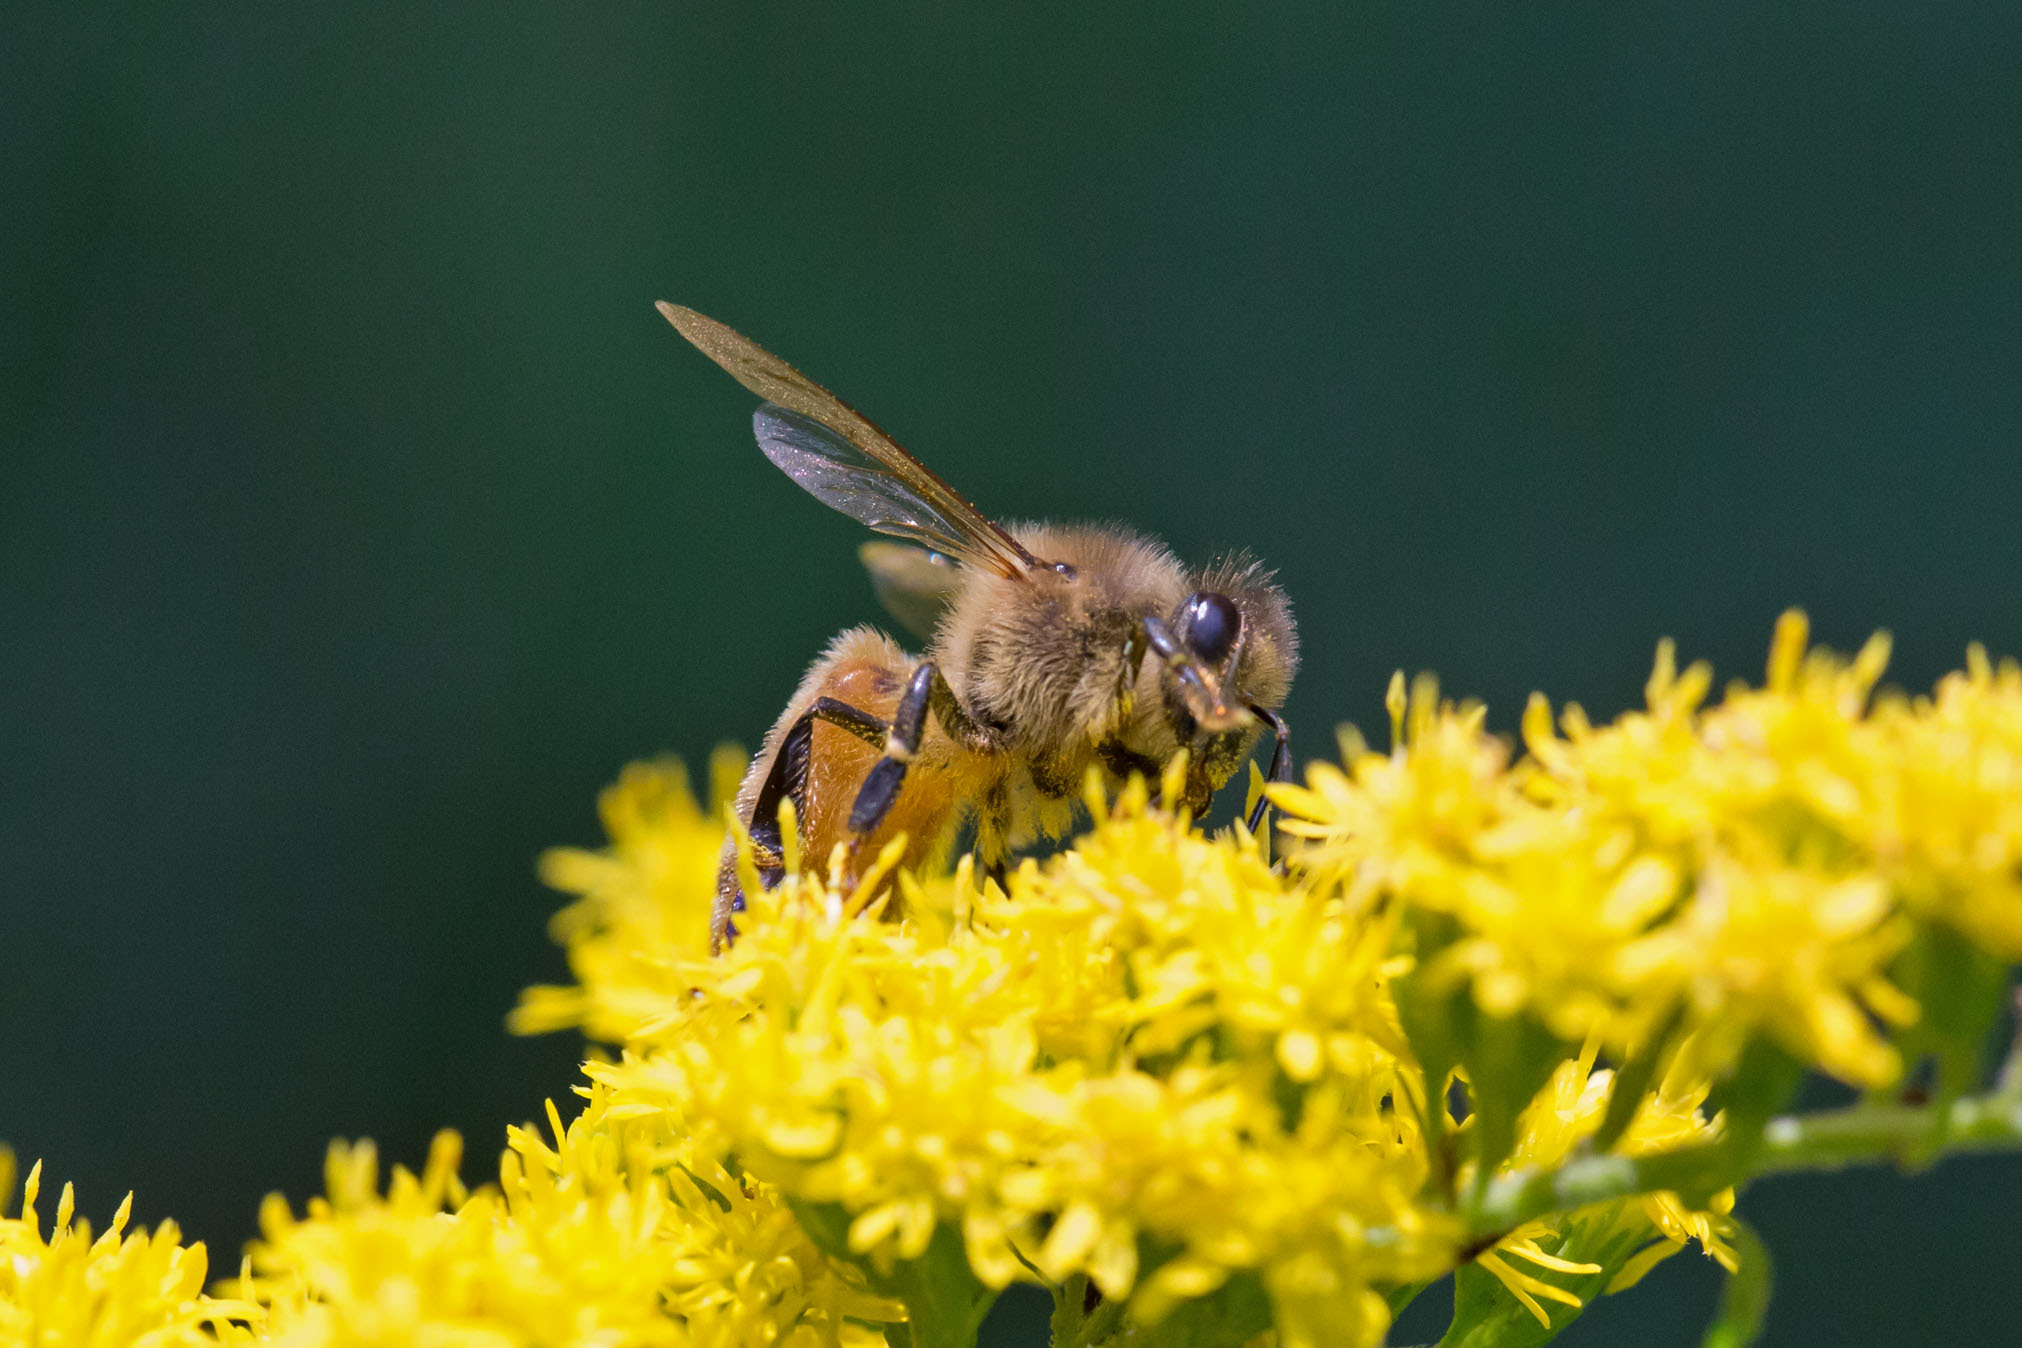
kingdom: Animalia
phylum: Arthropoda
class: Insecta
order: Hymenoptera
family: Apidae
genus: Apis
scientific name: Apis mellifera
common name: Honey bee
